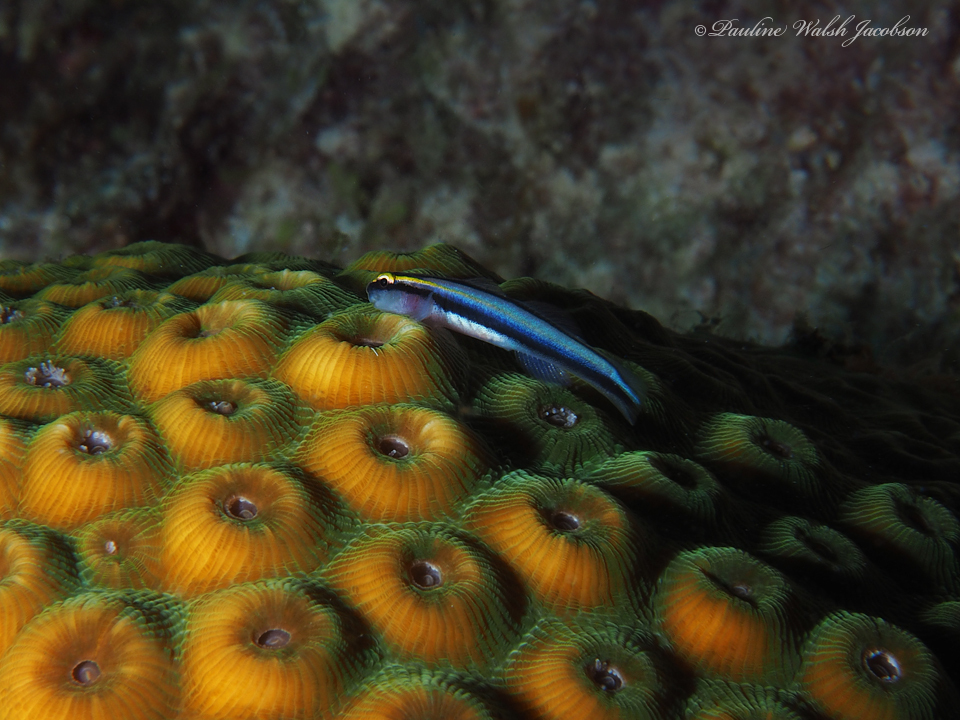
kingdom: Animalia
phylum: Chordata
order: Perciformes
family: Gobiidae
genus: Elacatinus
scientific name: Elacatinus evelynae
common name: Sharknose goby
